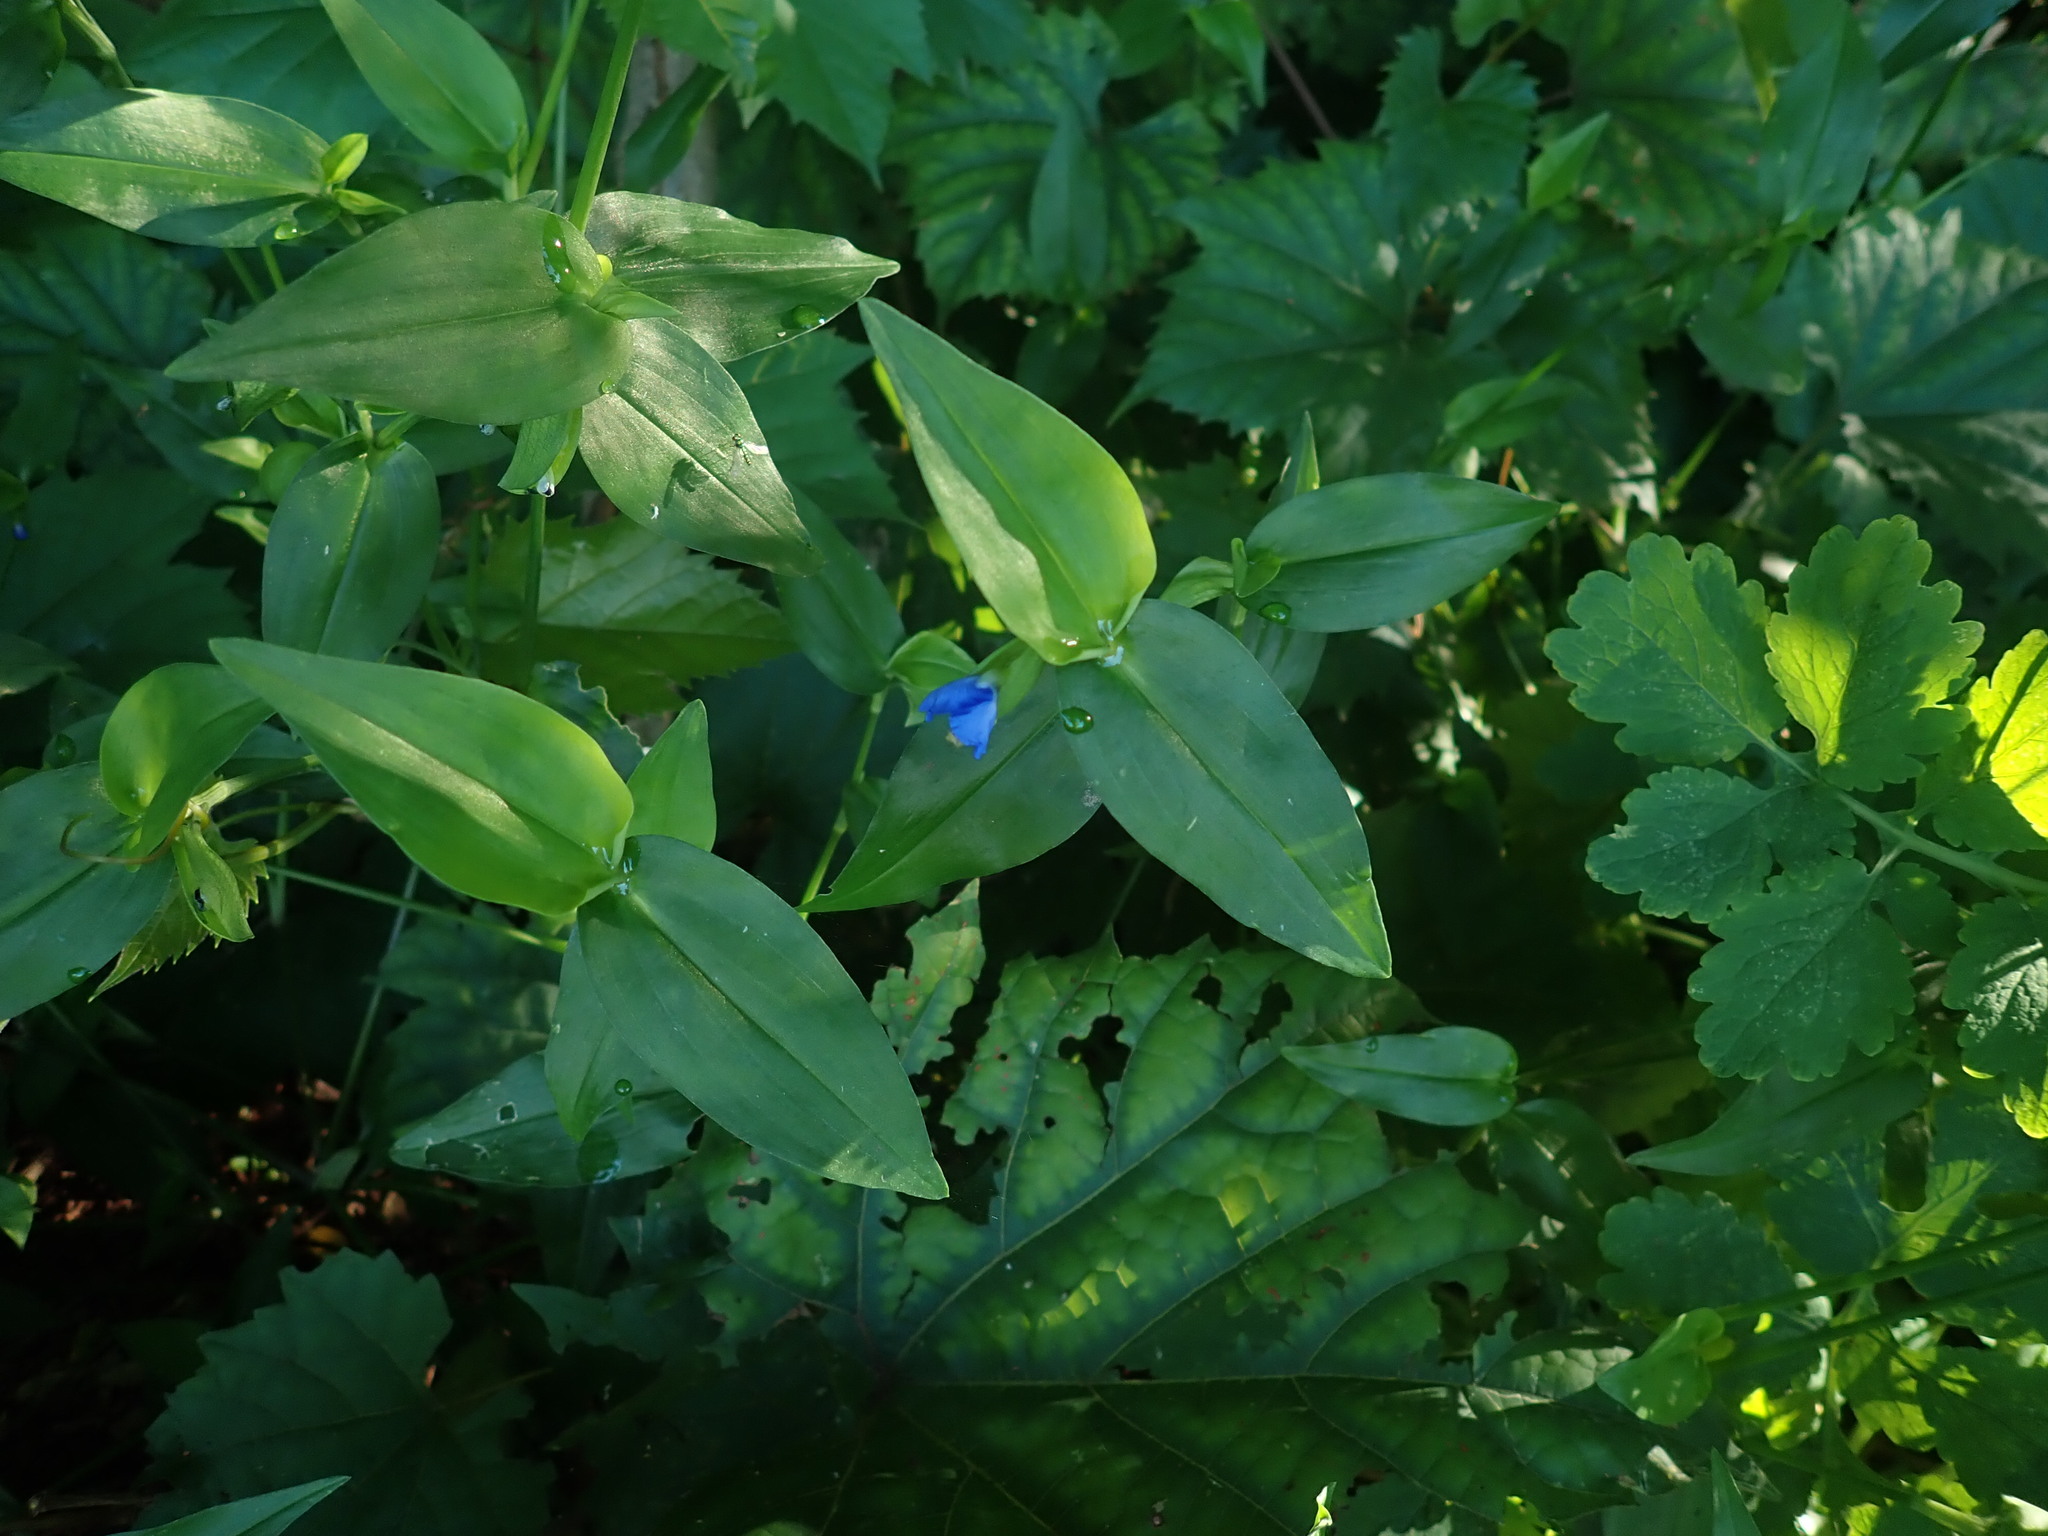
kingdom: Plantae
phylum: Tracheophyta
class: Liliopsida
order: Commelinales
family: Commelinaceae
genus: Commelina
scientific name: Commelina communis
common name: Asiatic dayflower
